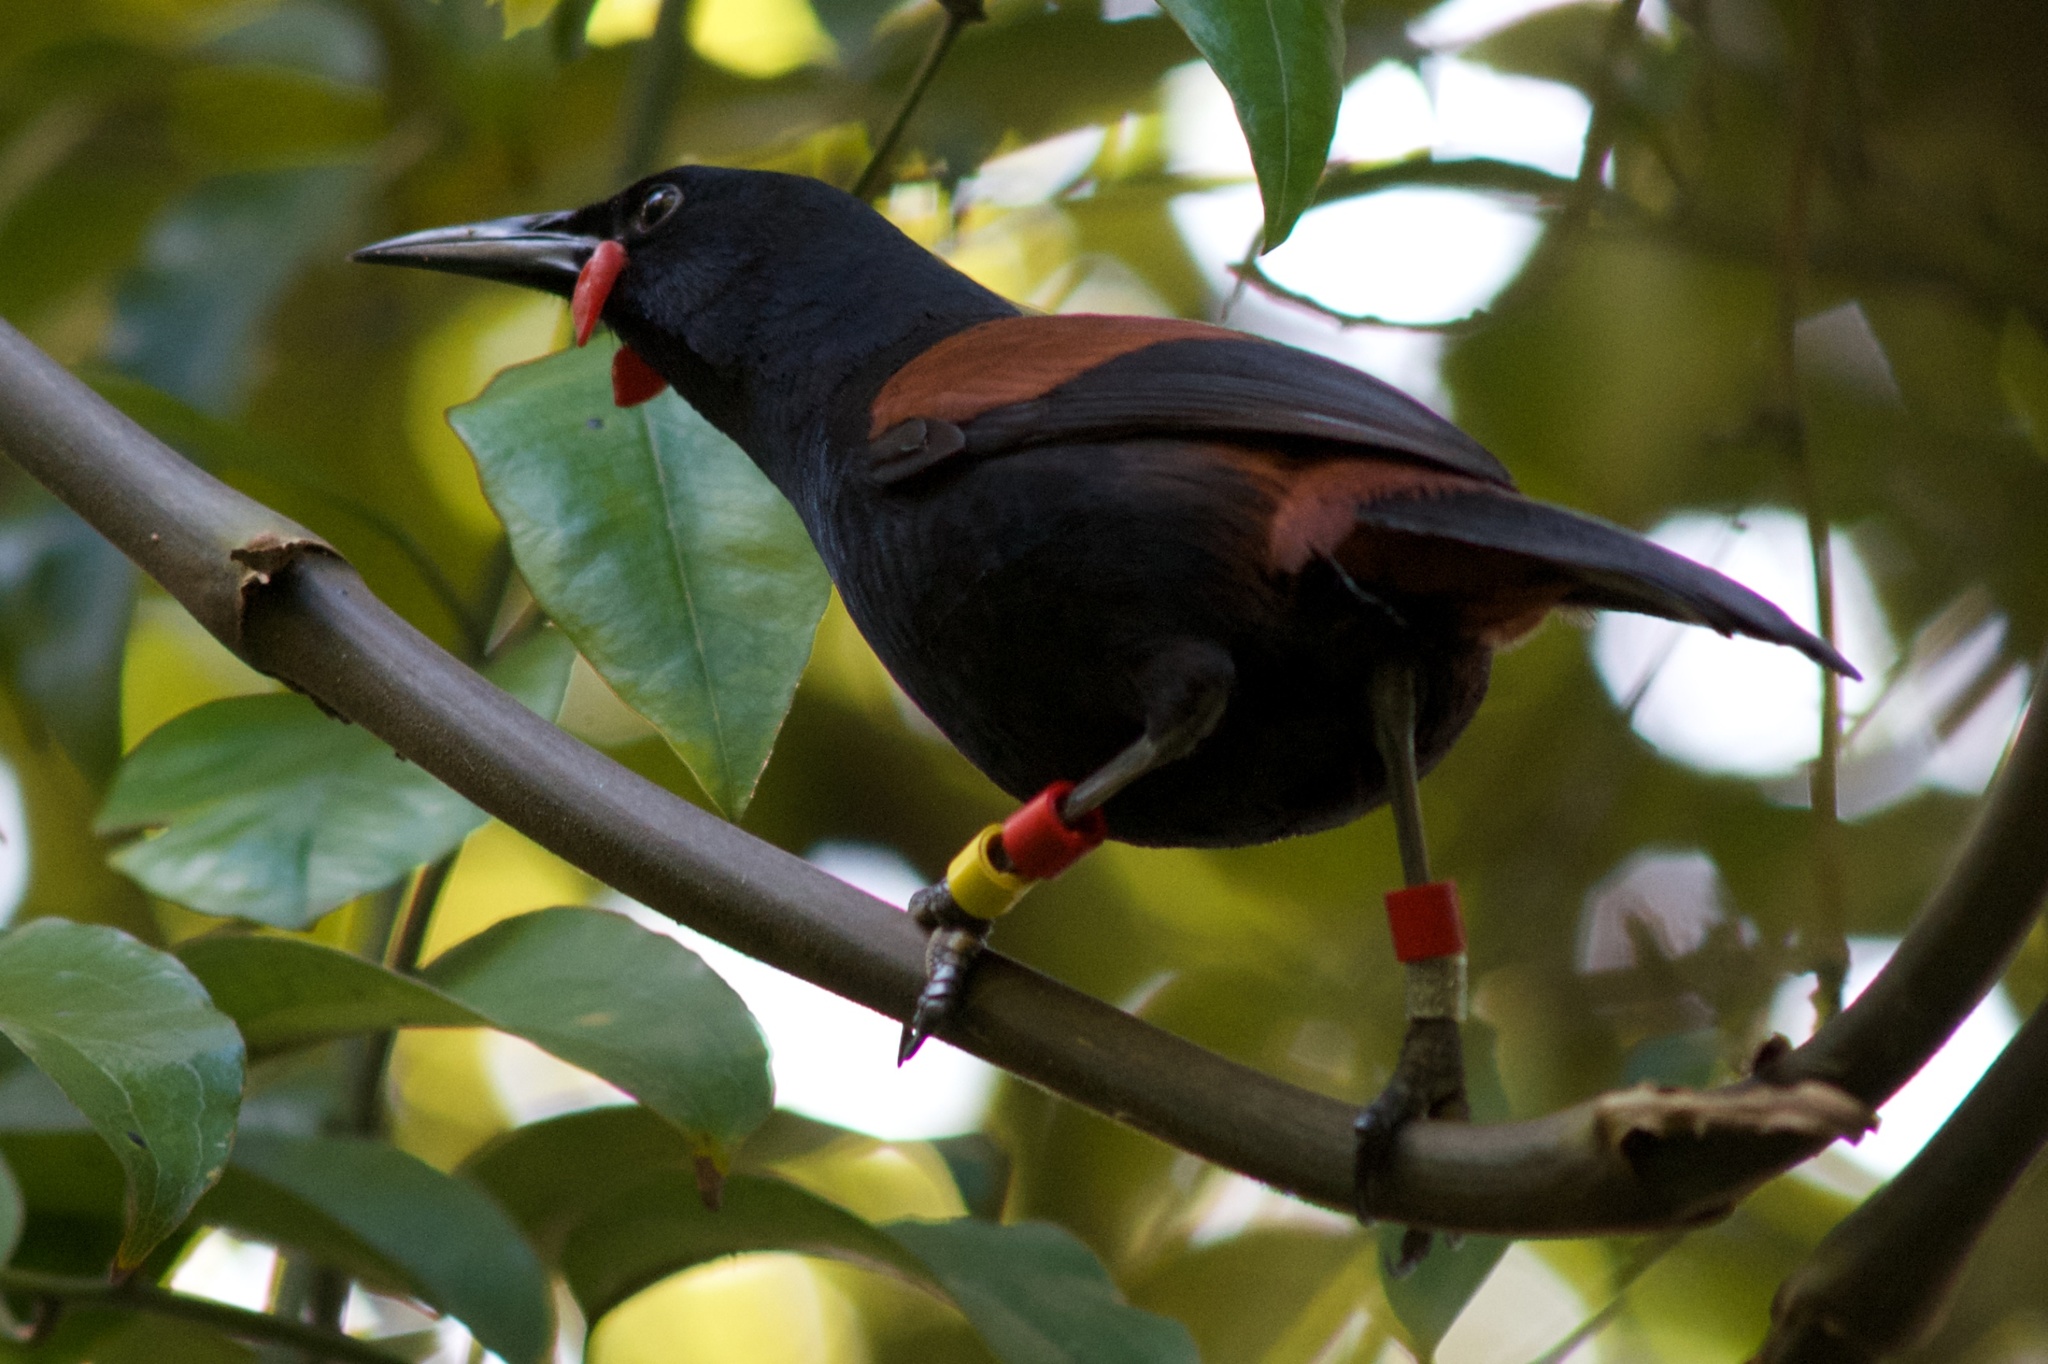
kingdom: Animalia
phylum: Chordata
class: Aves
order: Passeriformes
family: Callaeatidae
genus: Philesturnus
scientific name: Philesturnus carunculatus
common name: South island saddleback
